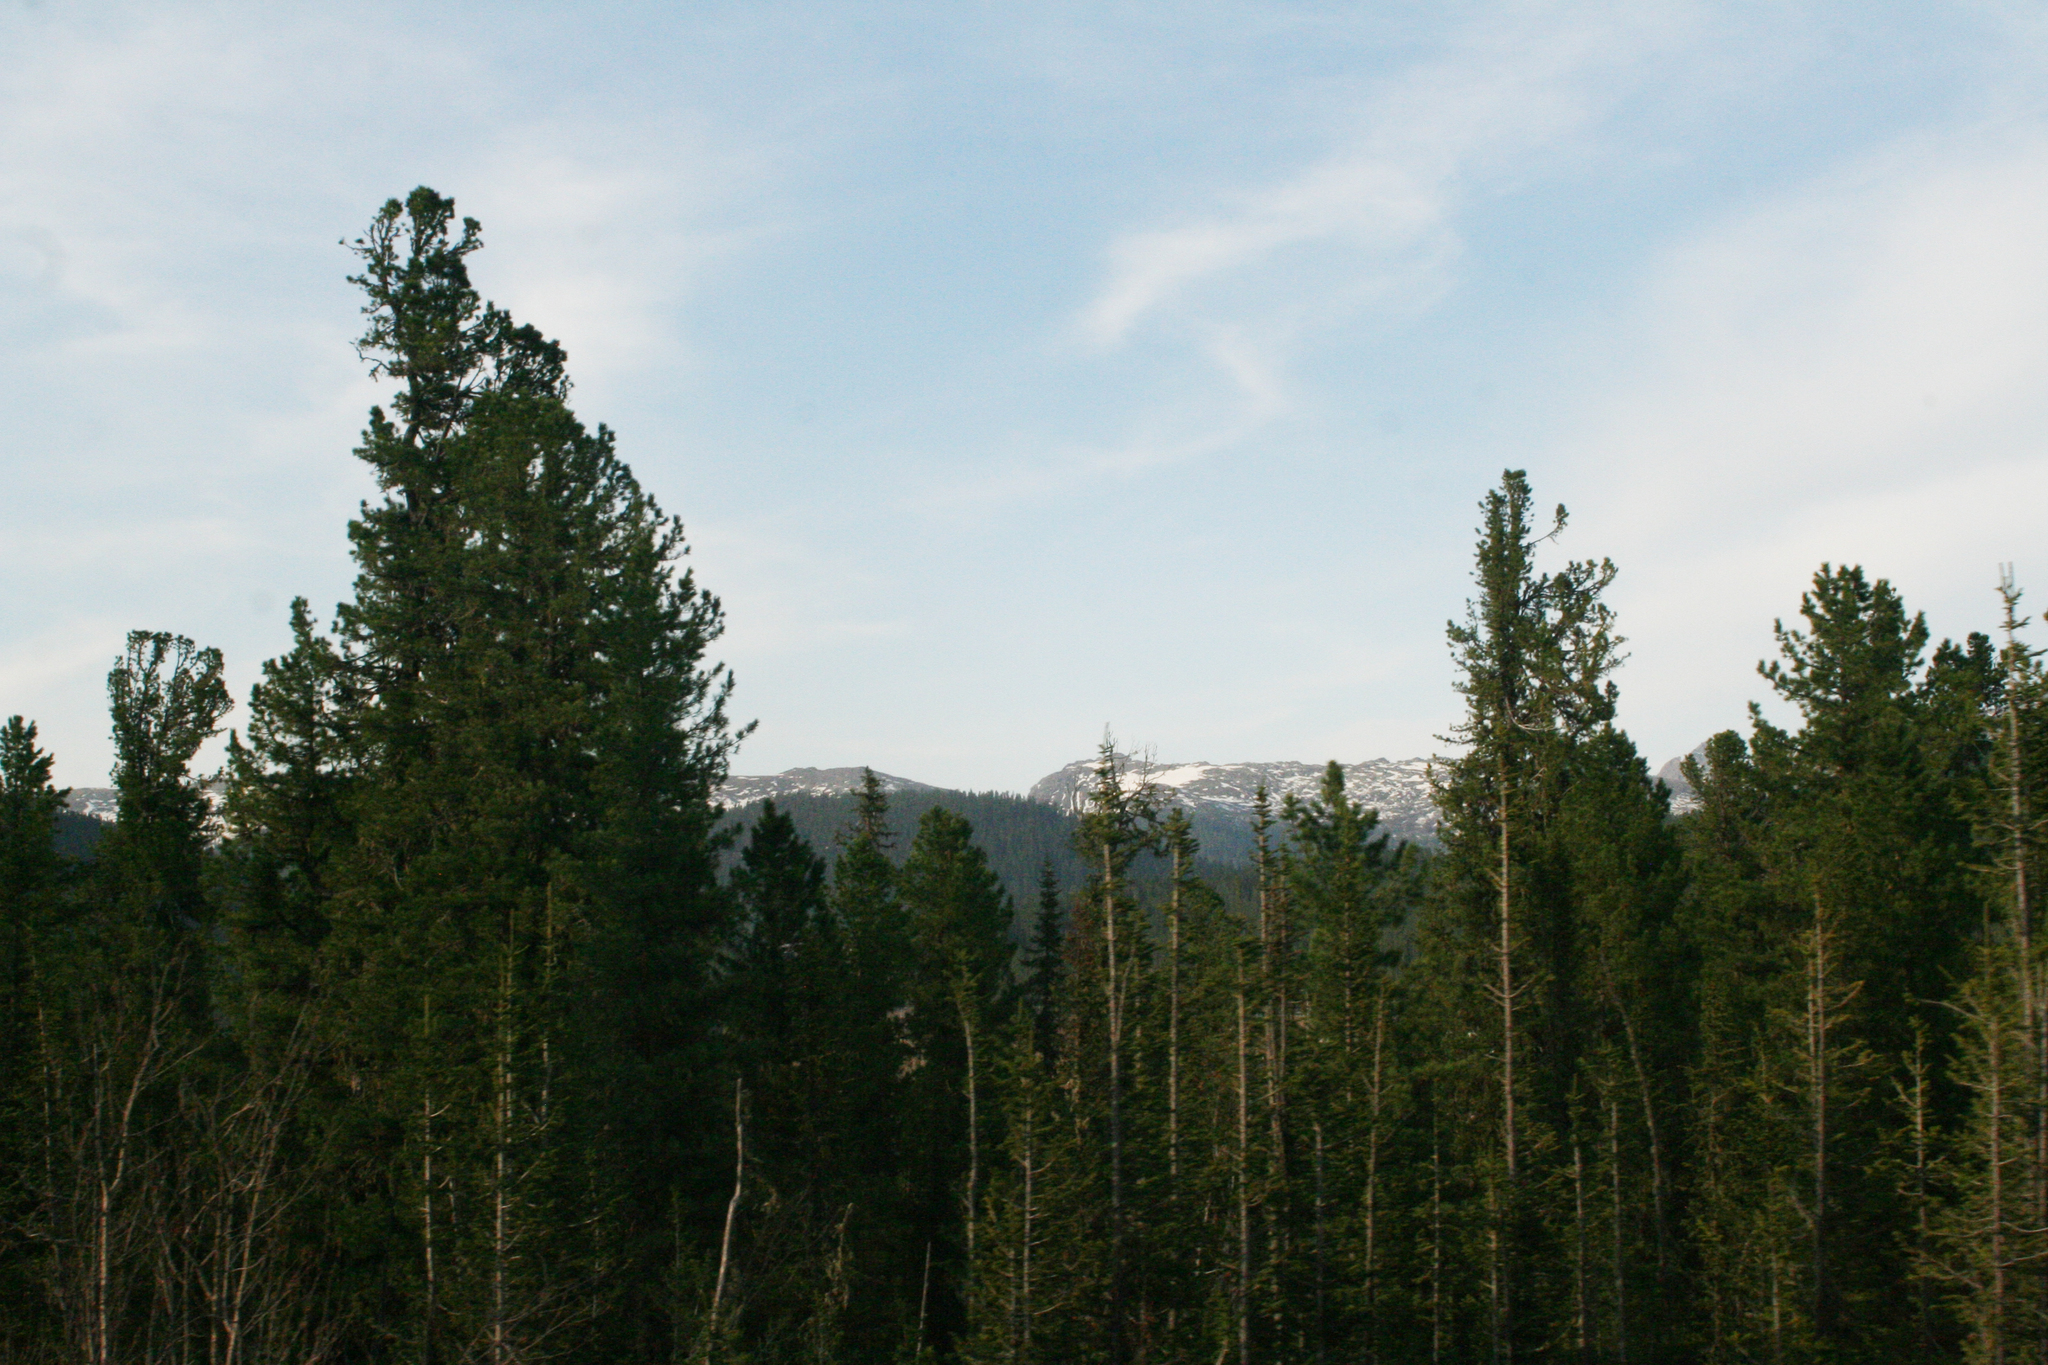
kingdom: Plantae
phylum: Tracheophyta
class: Pinopsida
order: Pinales
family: Pinaceae
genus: Pinus
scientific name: Pinus sibirica
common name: Siberian pine
